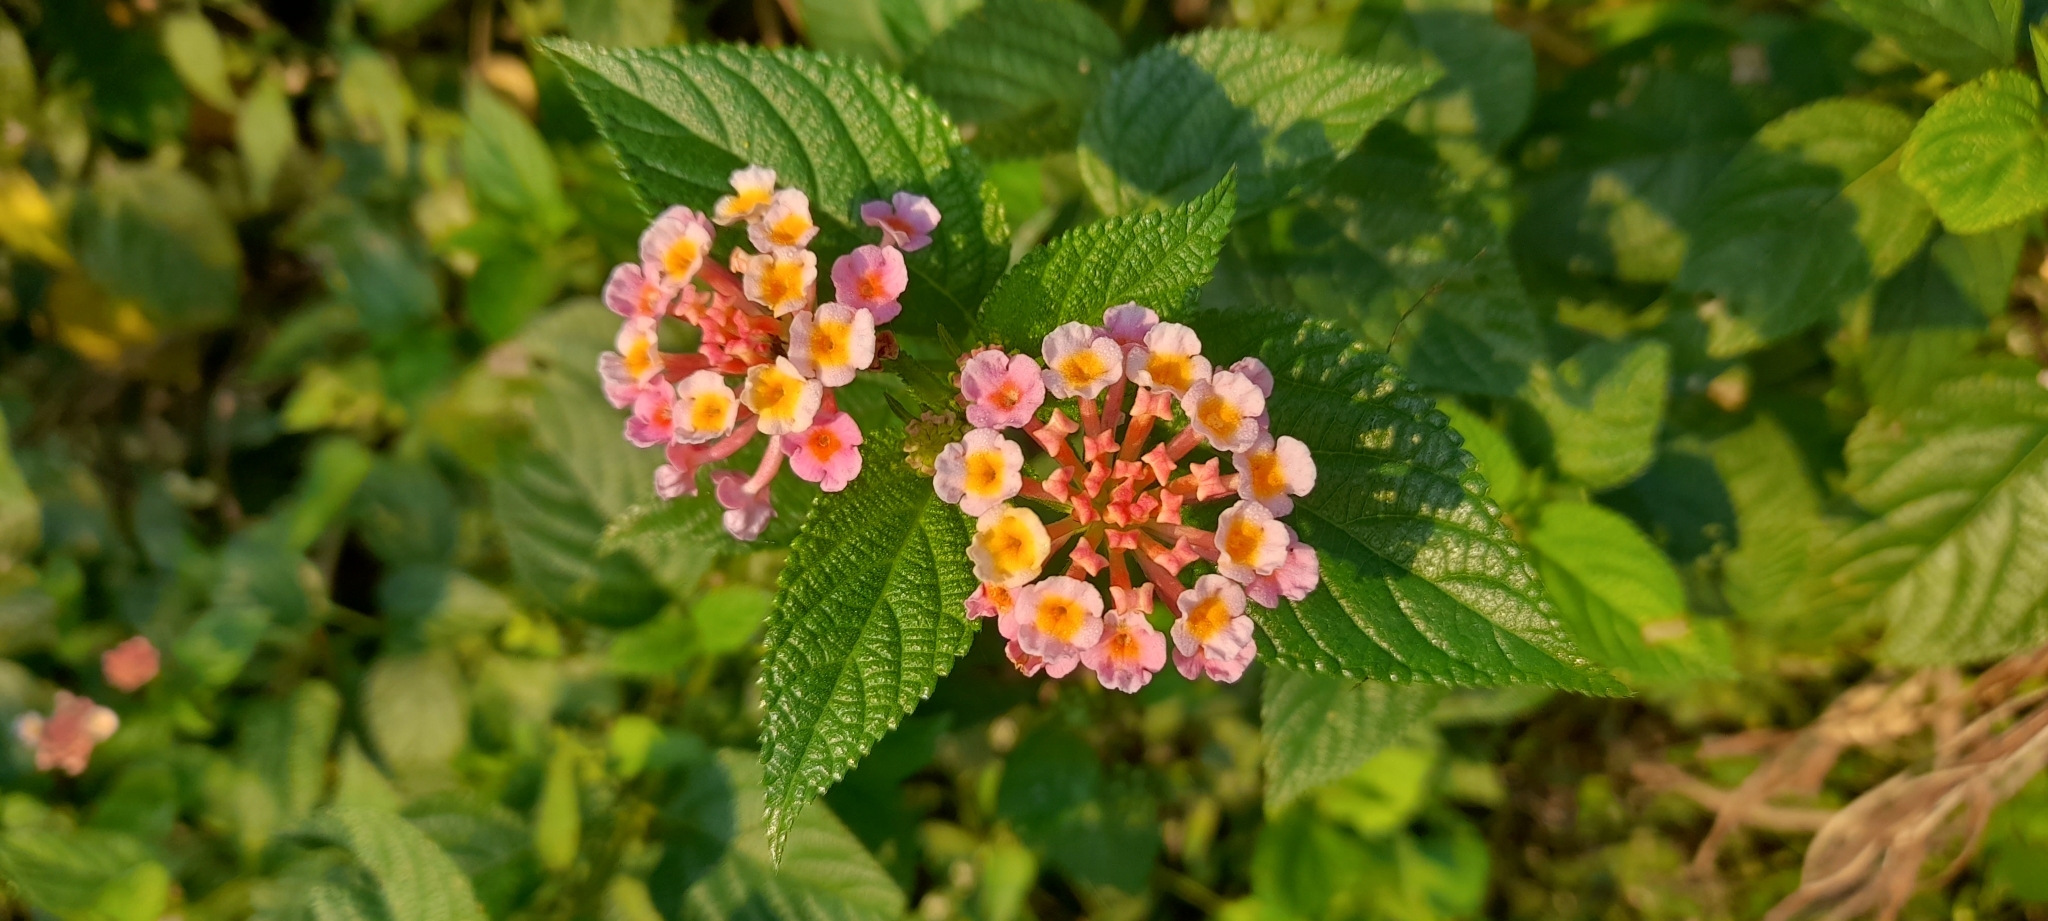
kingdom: Plantae
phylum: Tracheophyta
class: Magnoliopsida
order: Lamiales
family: Verbenaceae
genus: Lantana
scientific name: Lantana camara
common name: Lantana
